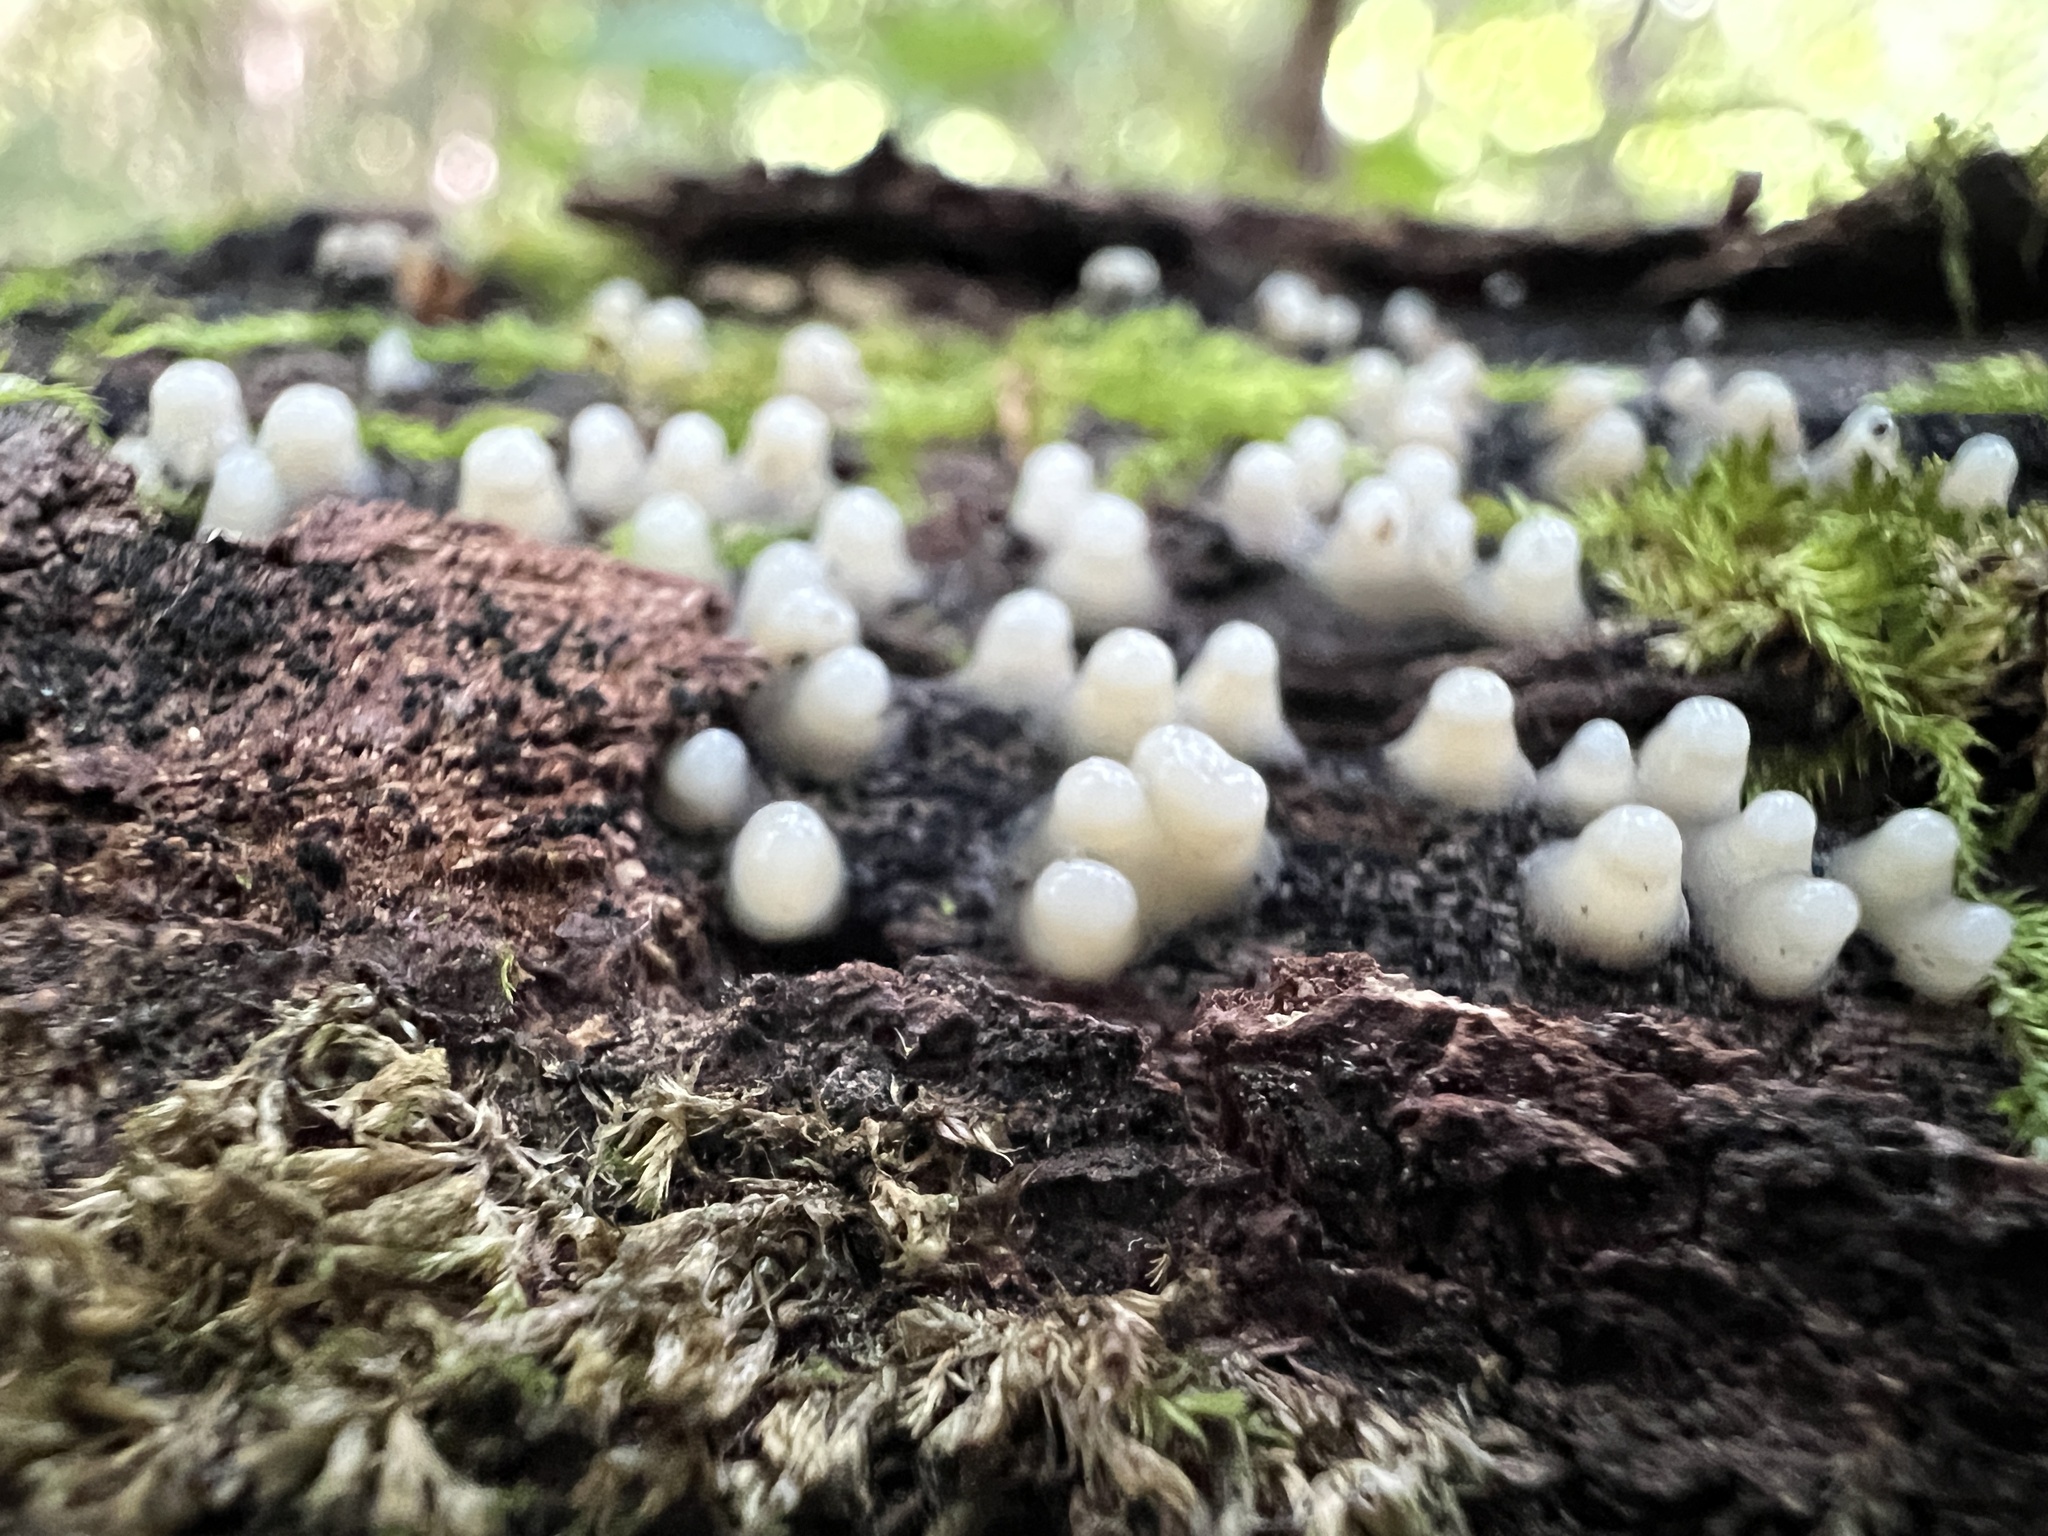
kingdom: Fungi
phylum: Basidiomycota
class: Atractiellomycetes
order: Atractiellales
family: Phleogenaceae
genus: Helicogloea
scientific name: Helicogloea compressa
